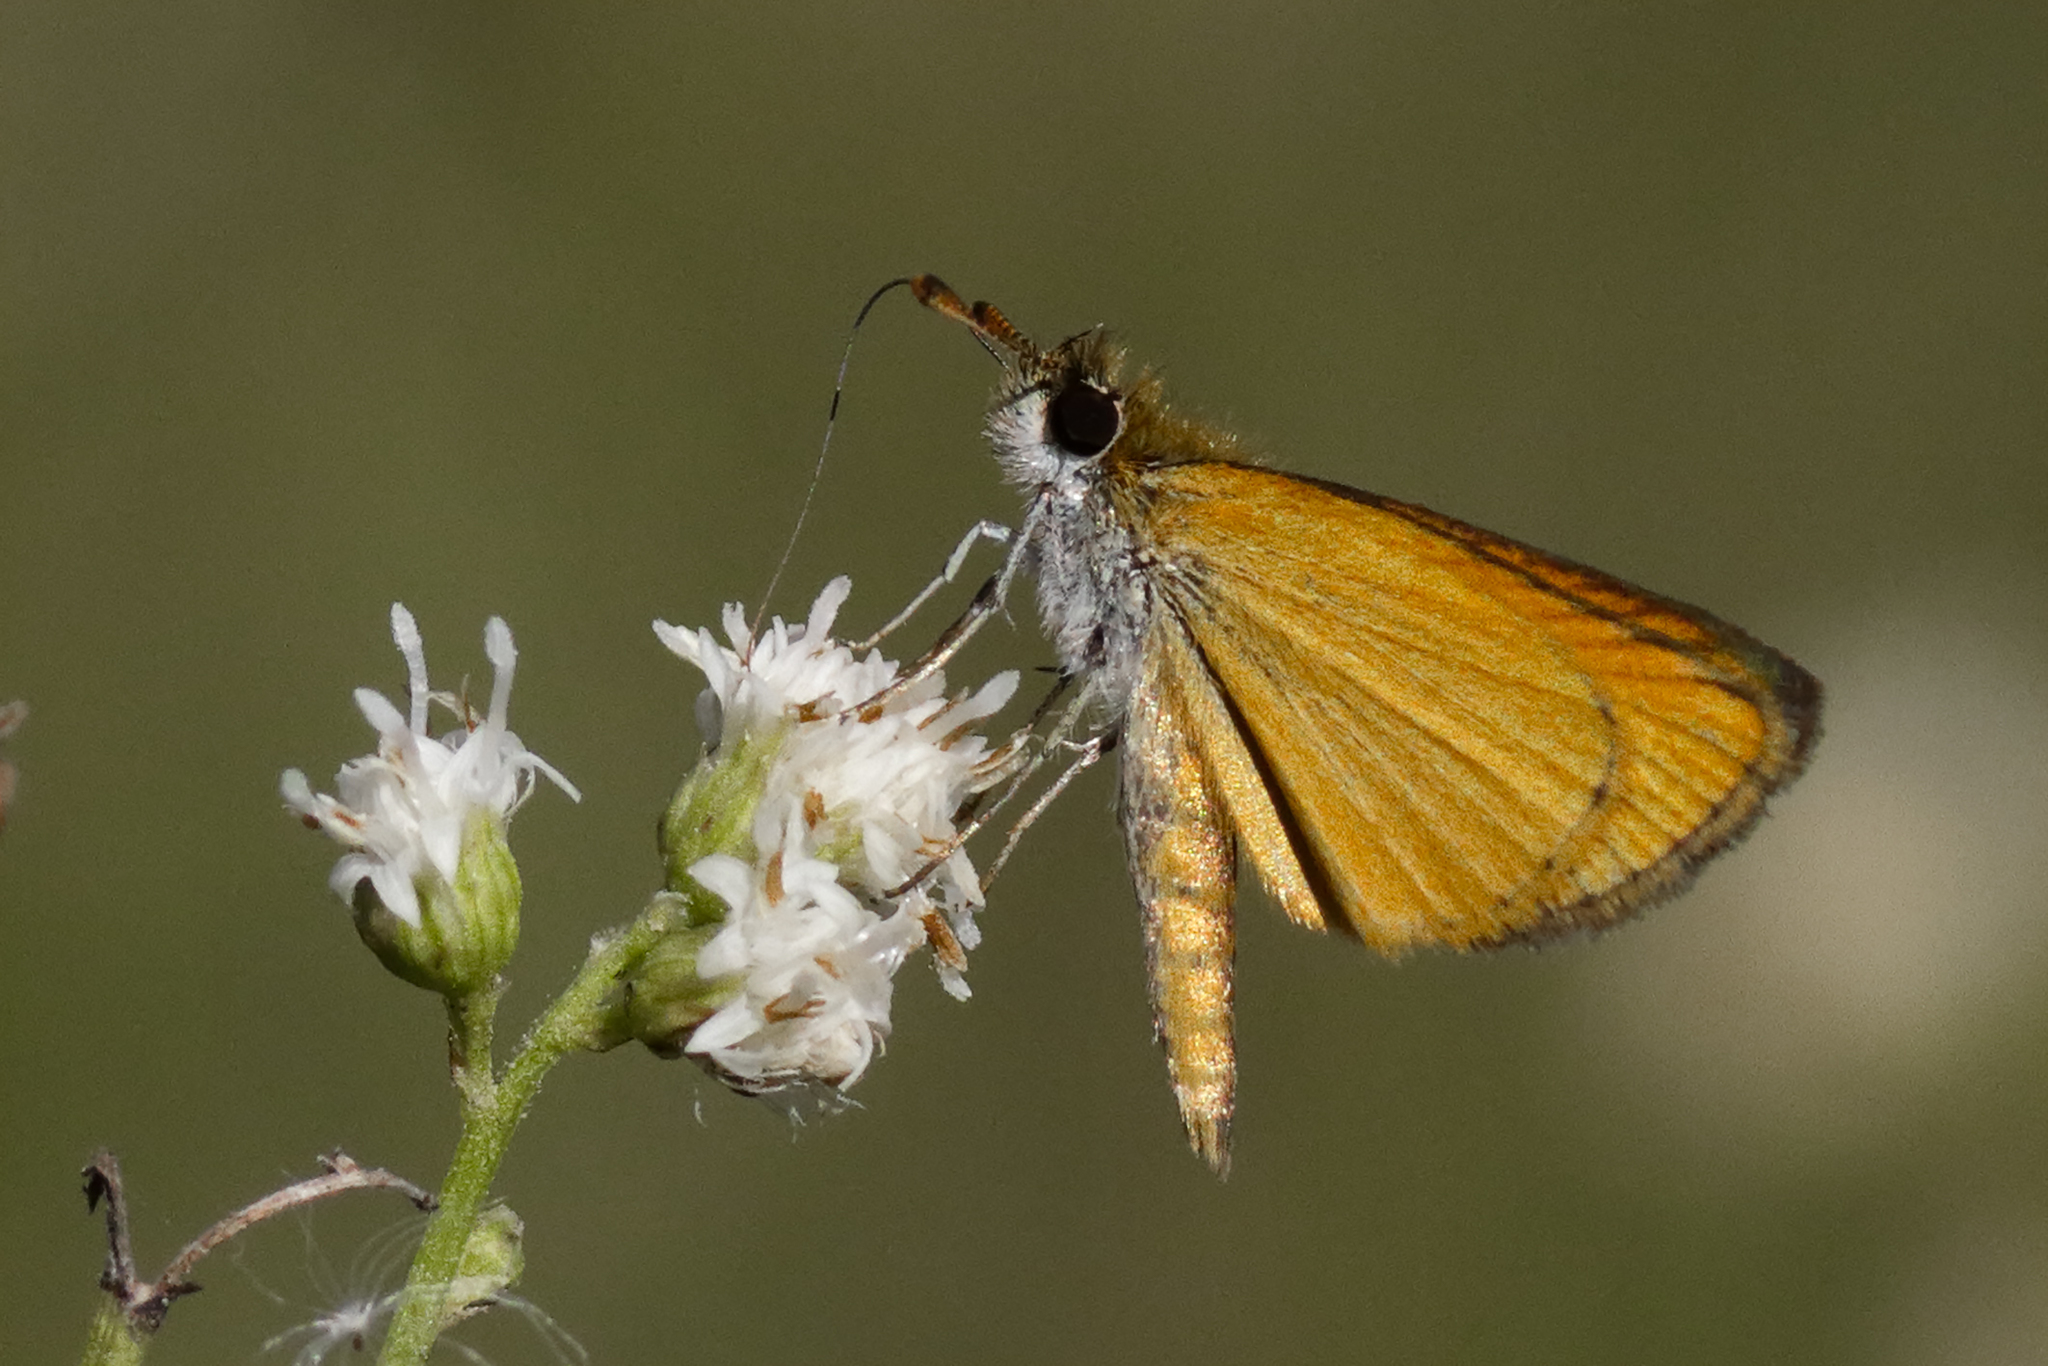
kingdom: Animalia
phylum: Arthropoda
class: Insecta
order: Lepidoptera
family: Hesperiidae
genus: Ancyloxypha
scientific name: Ancyloxypha nitedula
